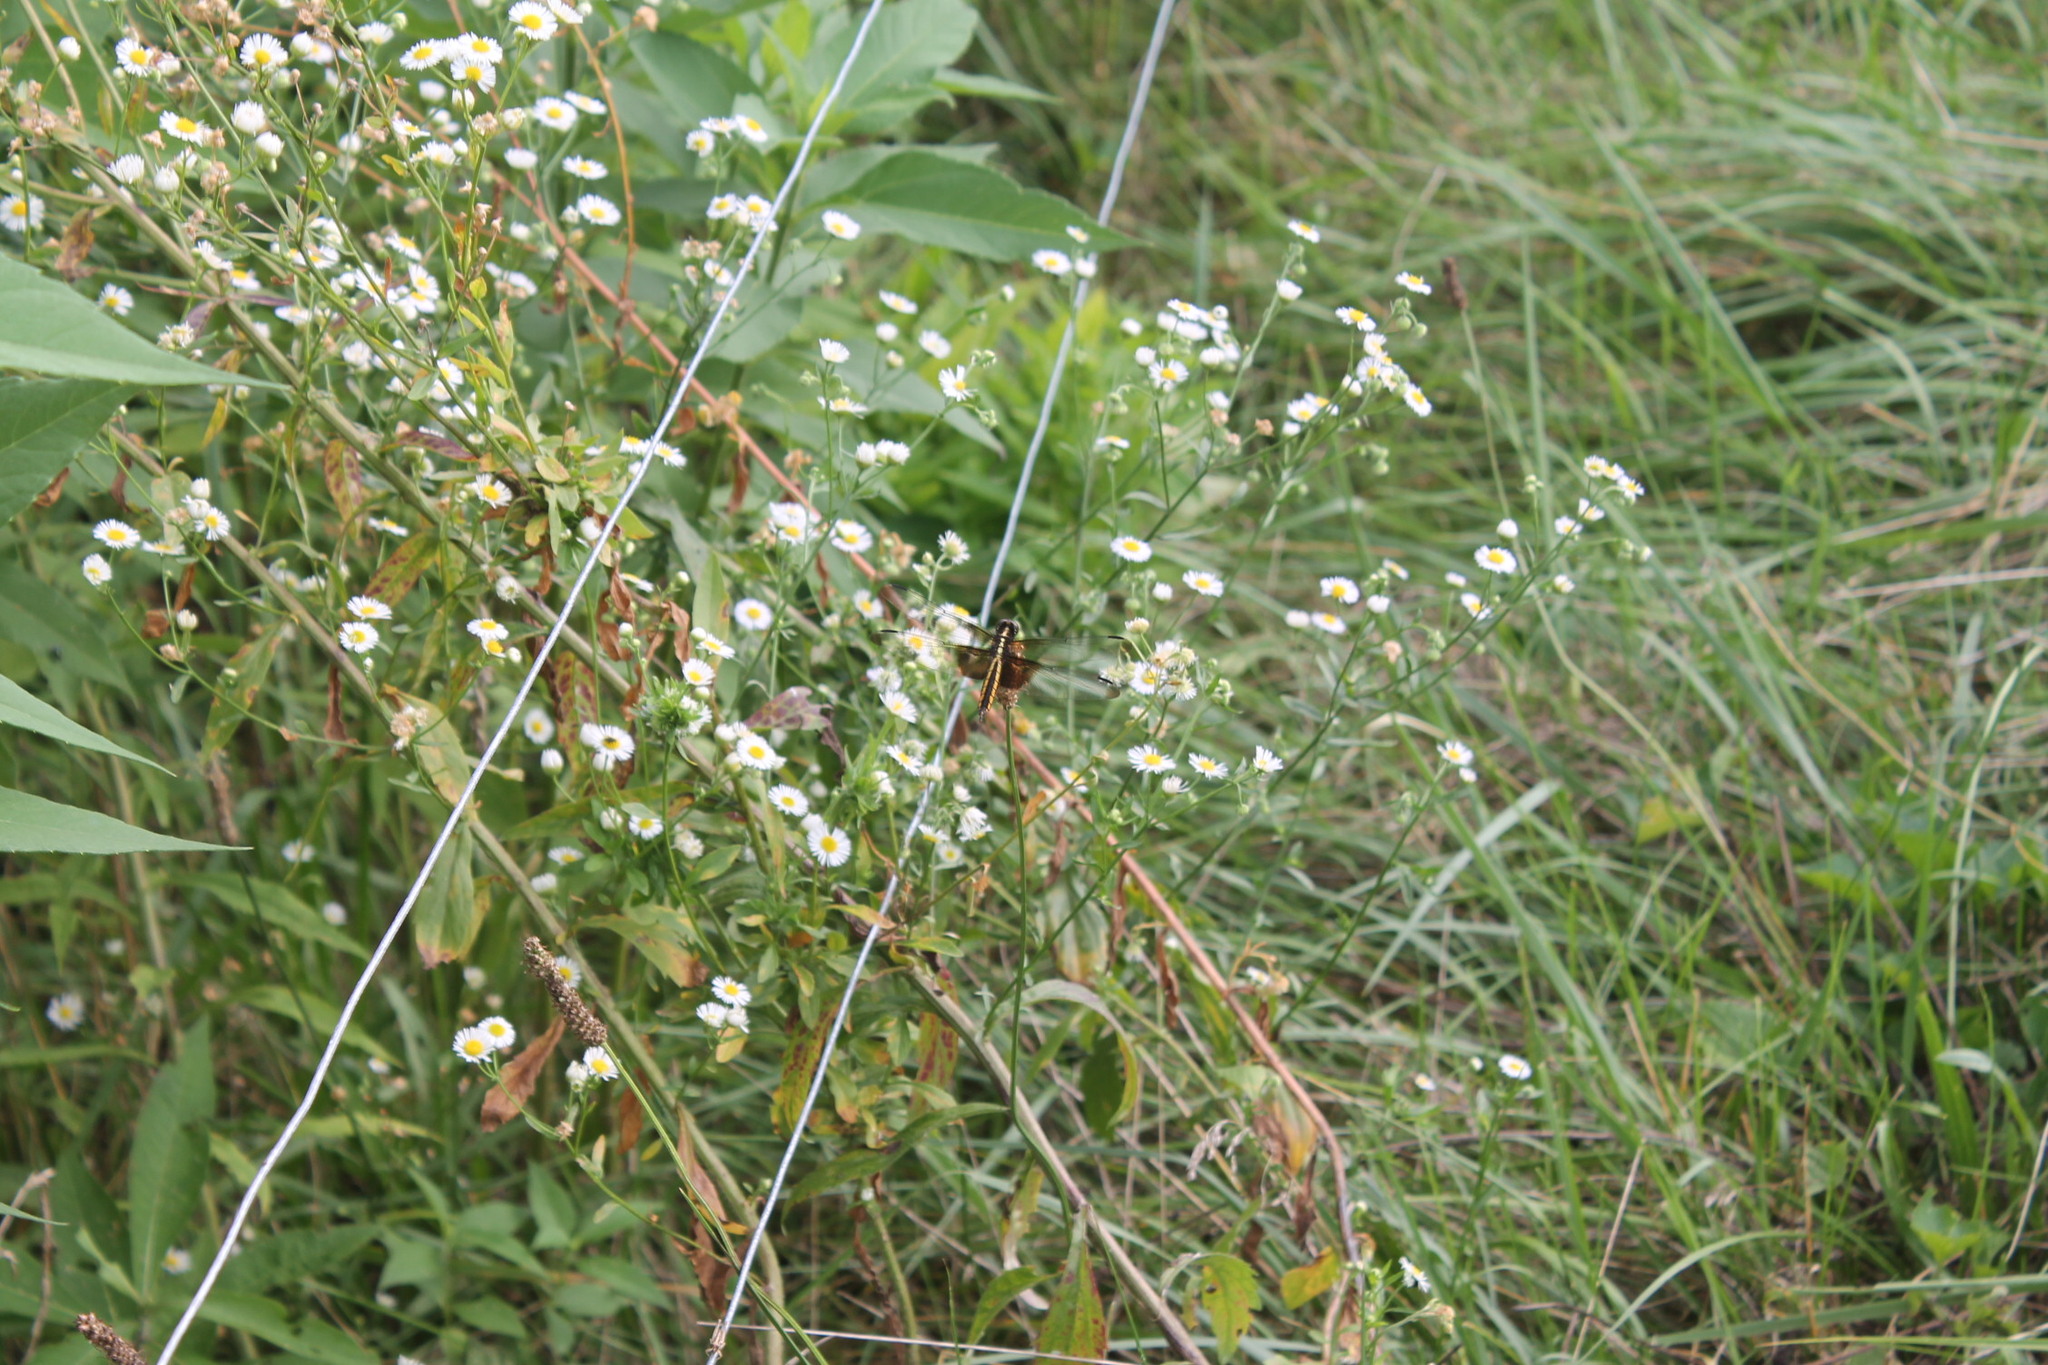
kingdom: Animalia
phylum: Arthropoda
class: Insecta
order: Odonata
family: Libellulidae
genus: Libellula
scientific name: Libellula luctuosa
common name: Widow skimmer
